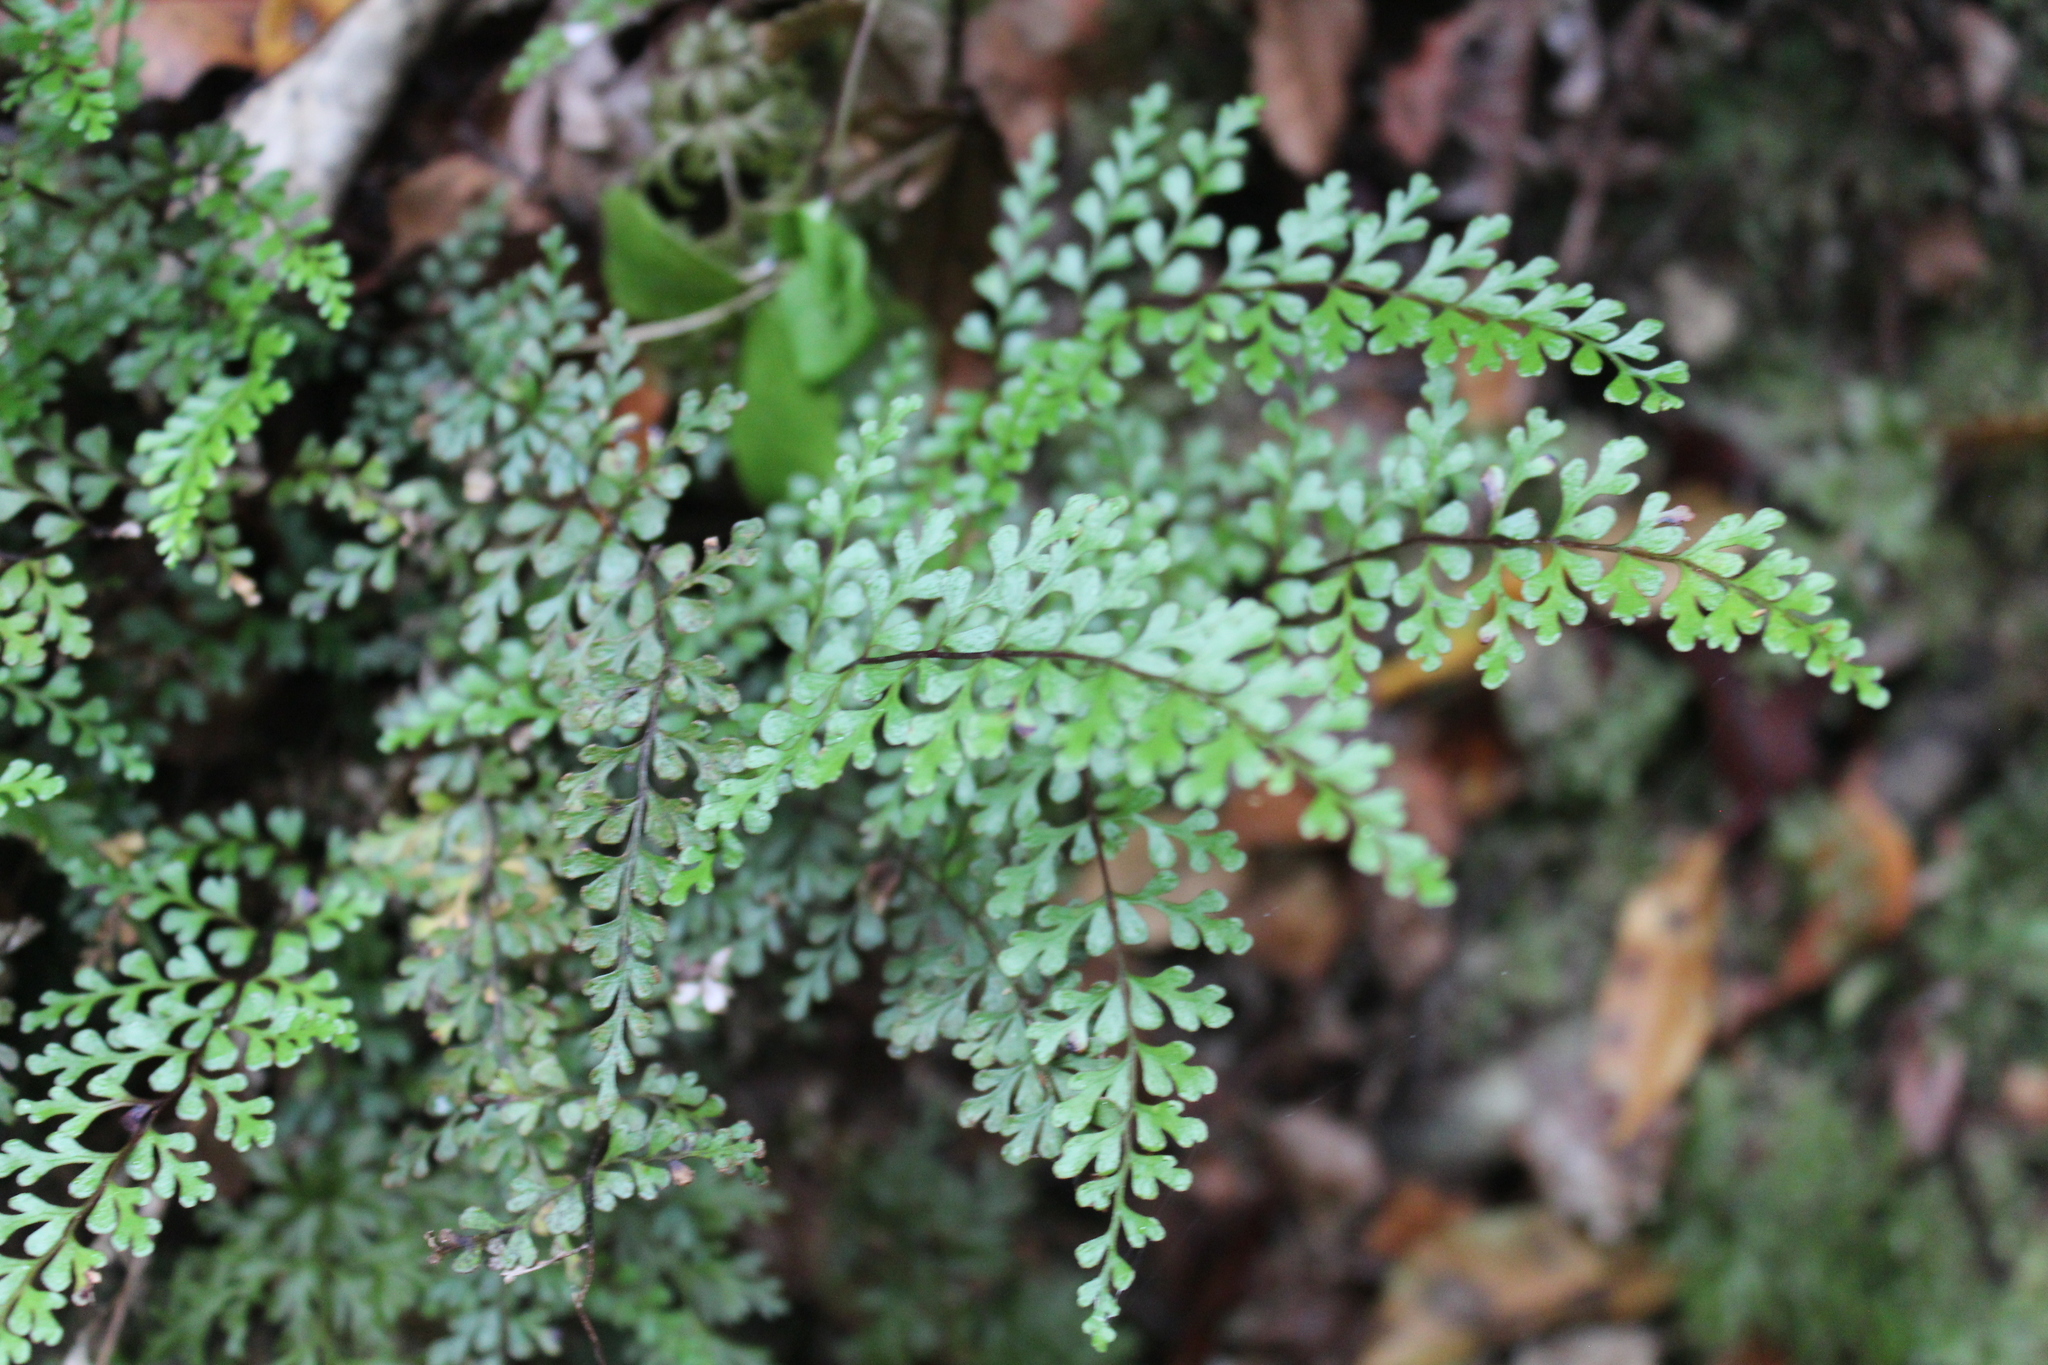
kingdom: Plantae
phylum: Tracheophyta
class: Polypodiopsida
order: Polypodiales
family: Lindsaeaceae
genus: Lindsaea
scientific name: Lindsaea trichomanoides
